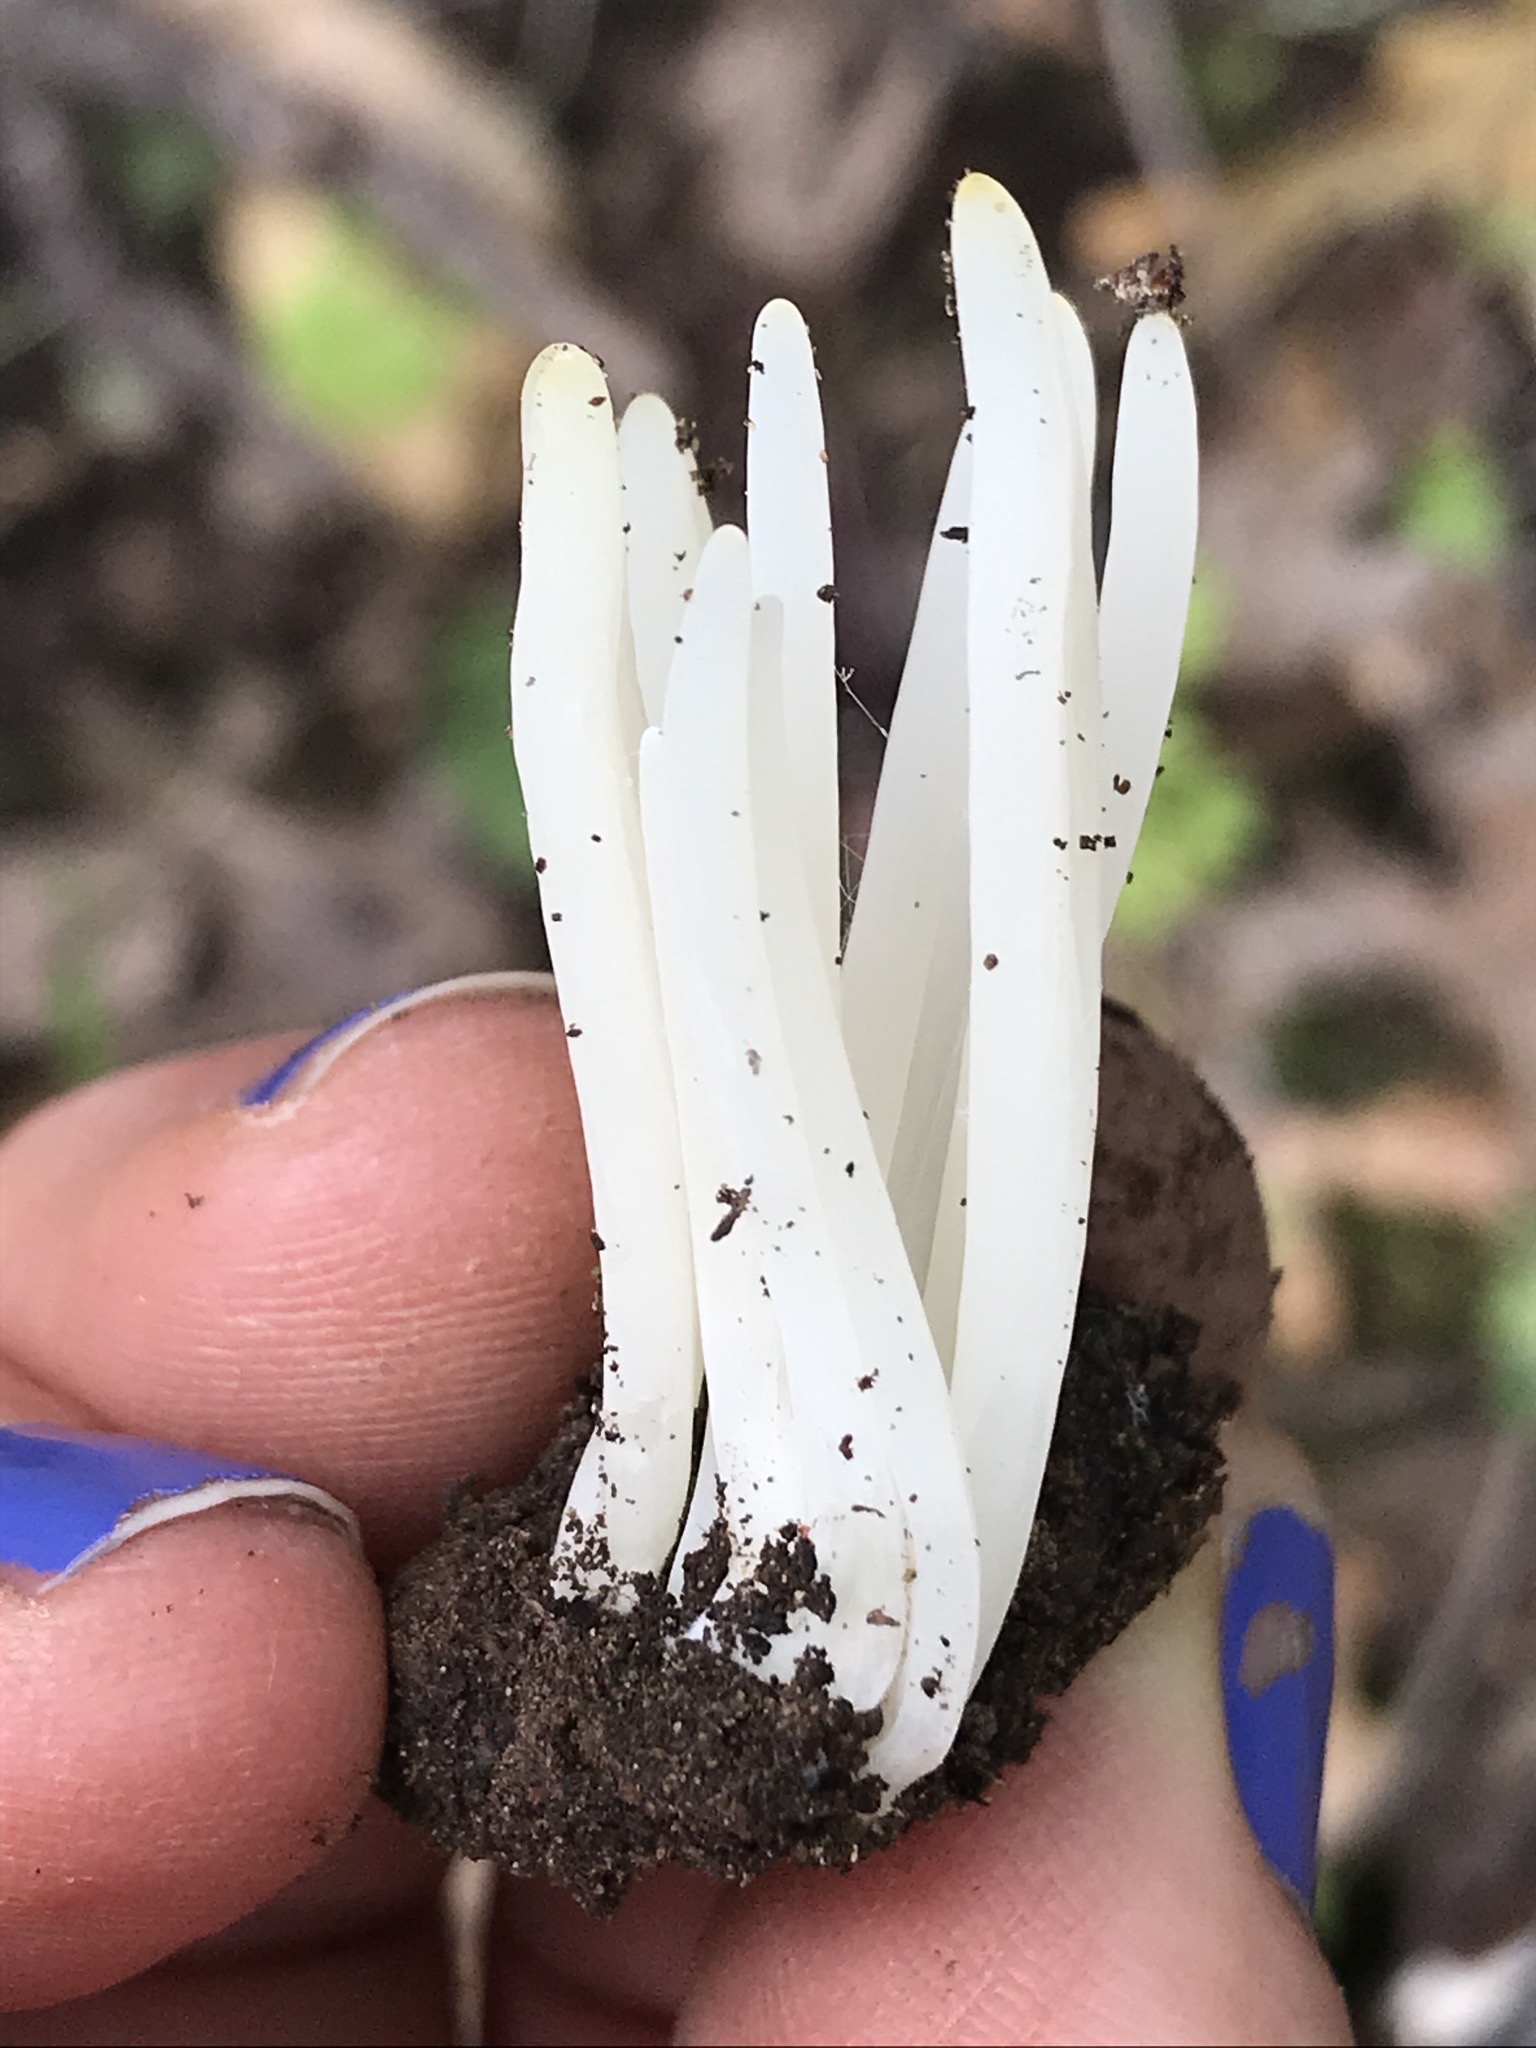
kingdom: Fungi
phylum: Basidiomycota
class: Agaricomycetes
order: Agaricales
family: Clavariaceae
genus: Clavaria
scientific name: Clavaria fragilis
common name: White spindles
